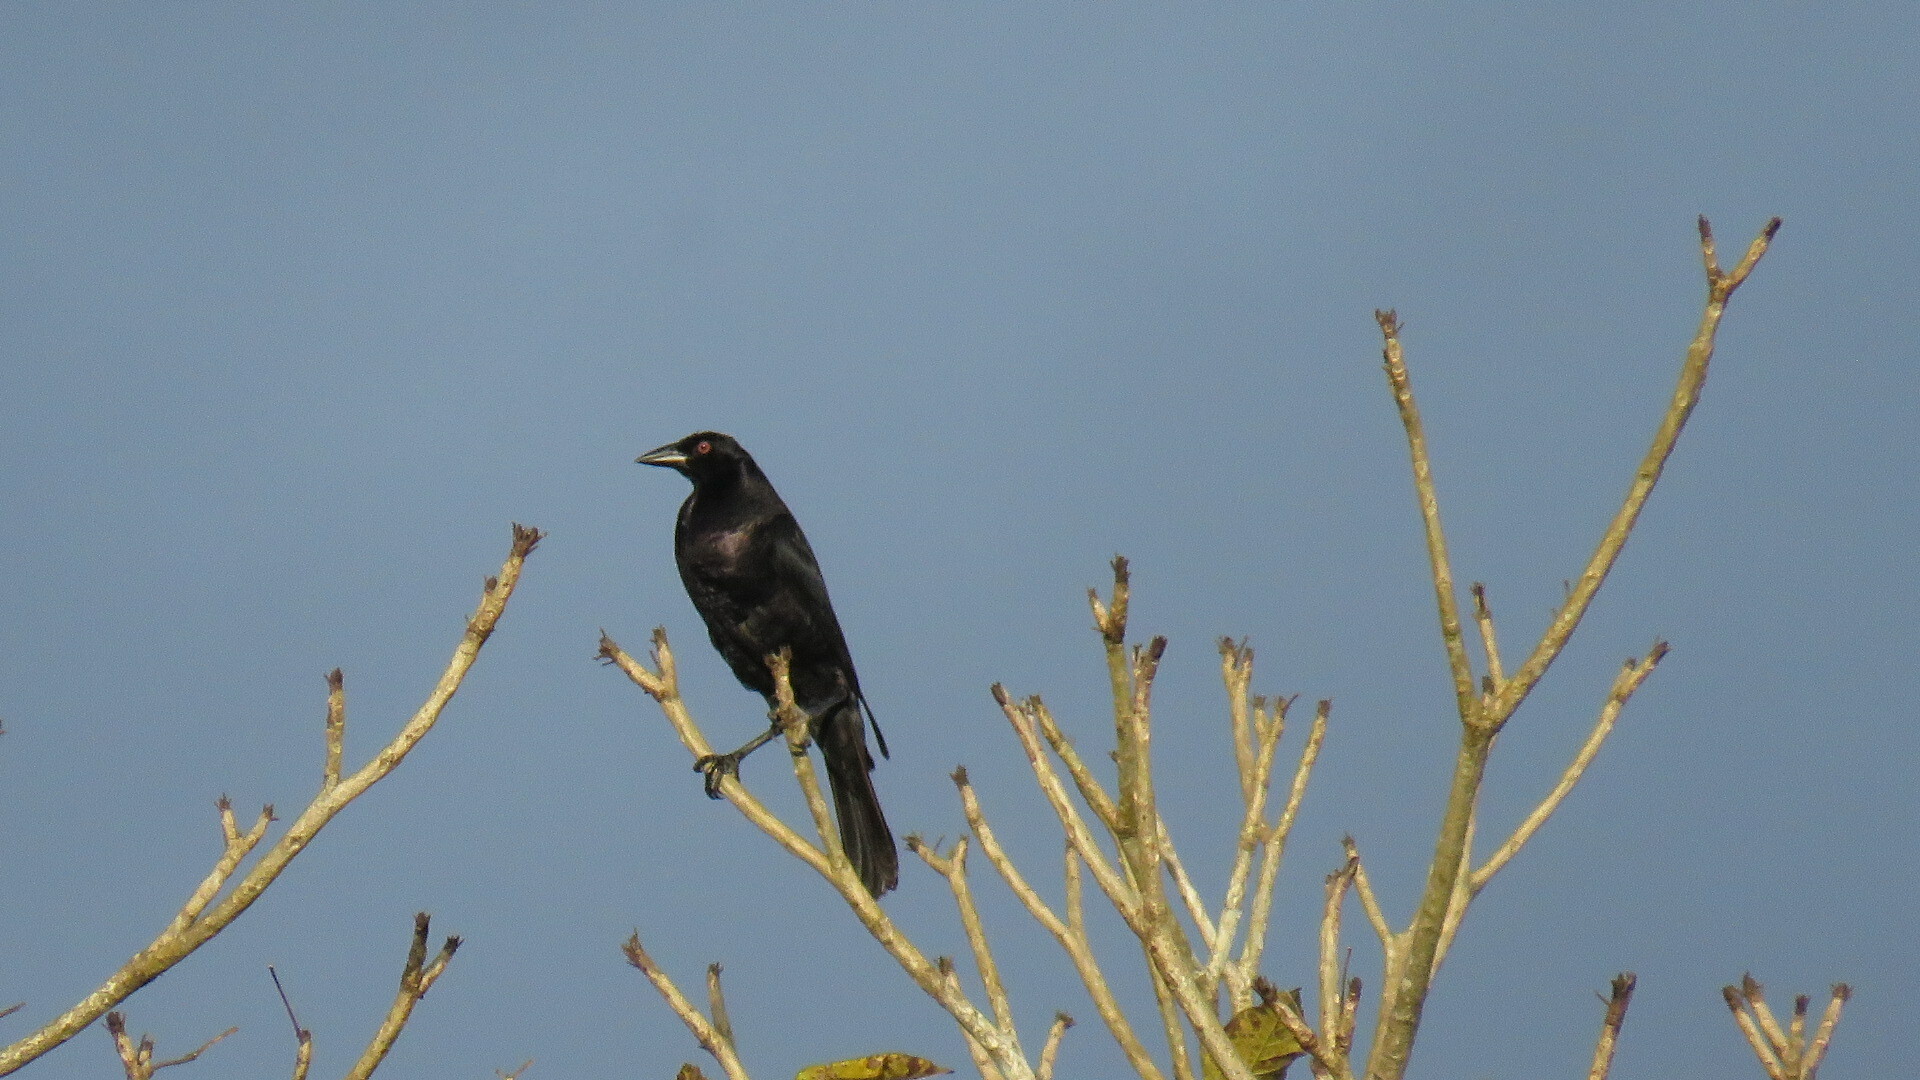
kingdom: Animalia
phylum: Chordata
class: Aves
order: Passeriformes
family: Icteridae
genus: Molothrus
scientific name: Molothrus oryzivorus
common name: Giant cowbird
